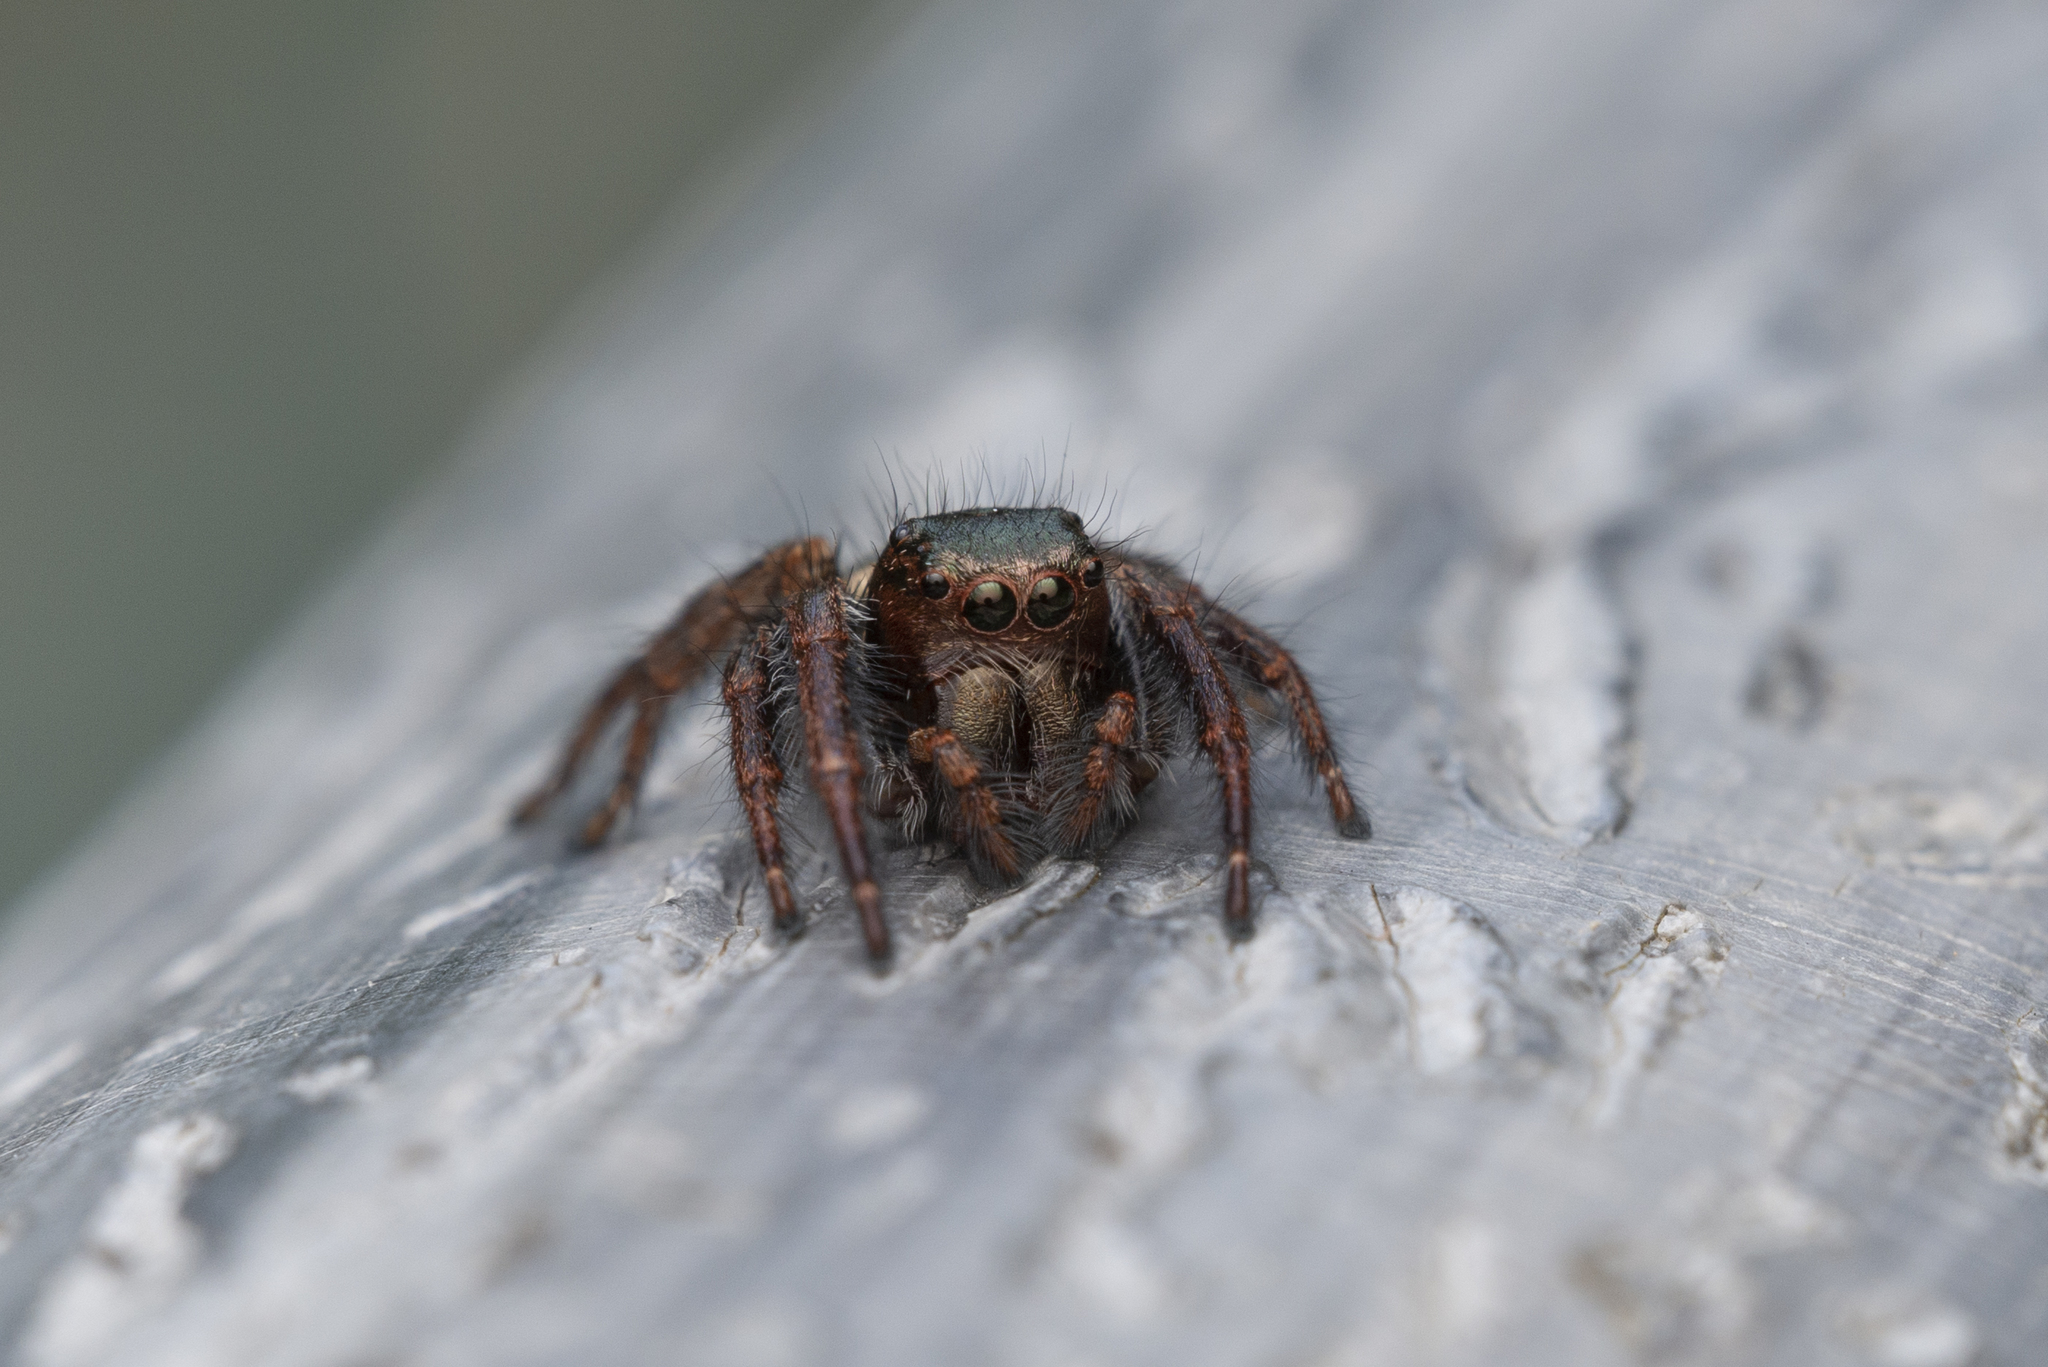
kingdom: Animalia
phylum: Arthropoda
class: Arachnida
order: Araneae
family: Salticidae
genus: Carrhotus
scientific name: Carrhotus viduus
